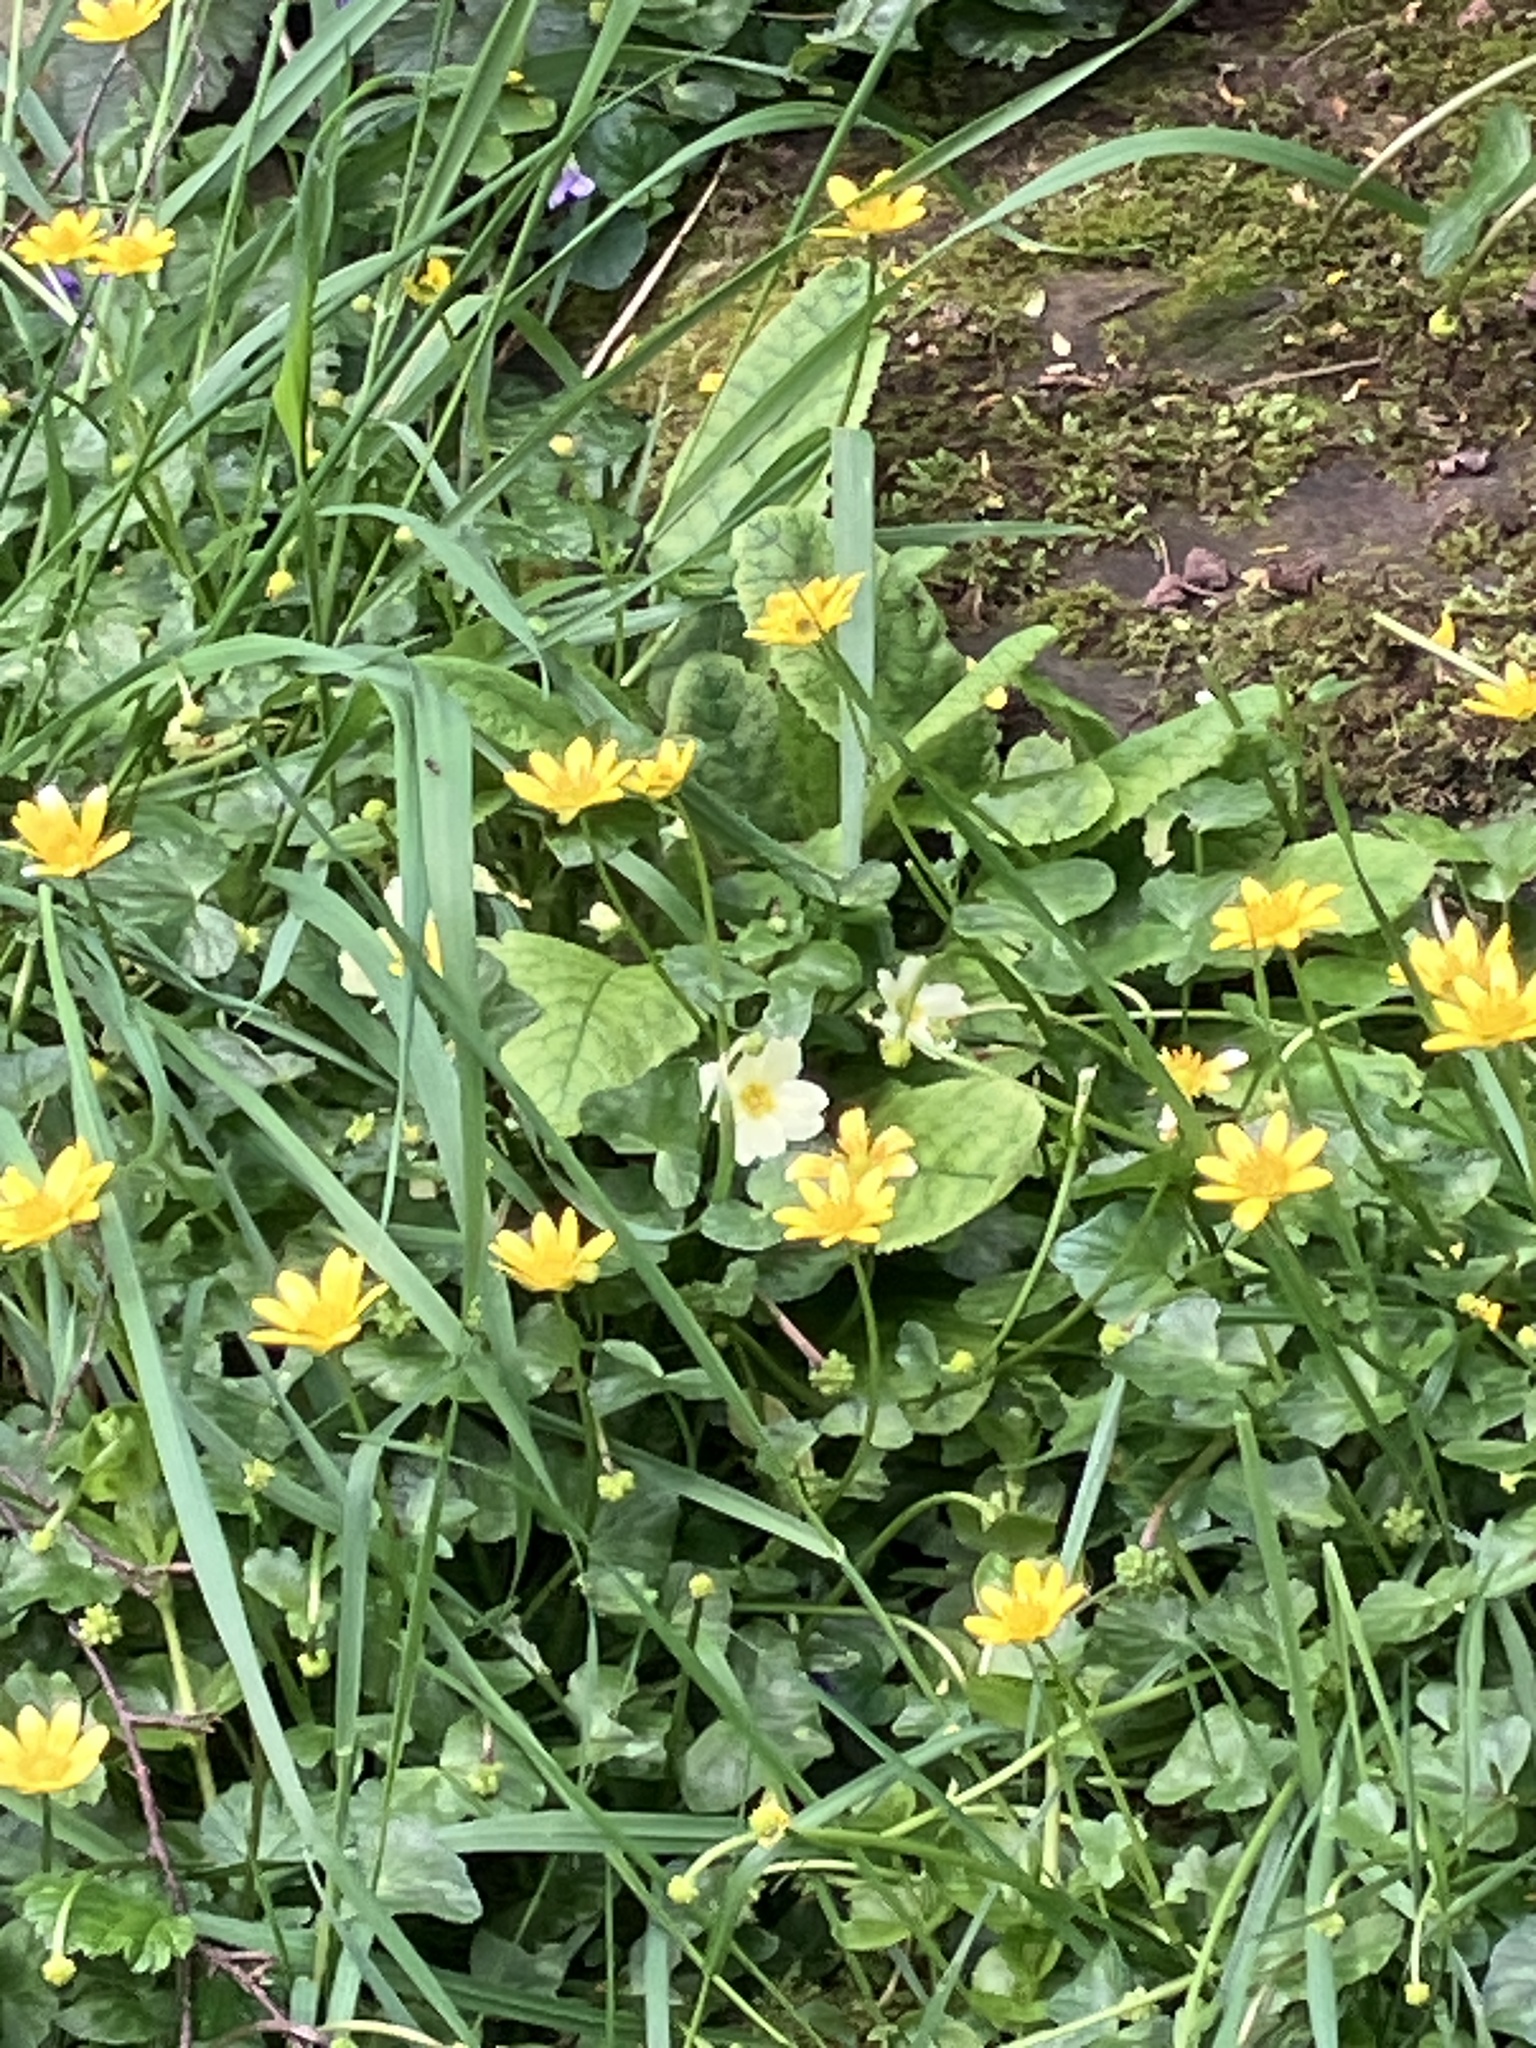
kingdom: Plantae
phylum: Tracheophyta
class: Magnoliopsida
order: Ranunculales
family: Ranunculaceae
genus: Ficaria
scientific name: Ficaria verna
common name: Lesser celandine
